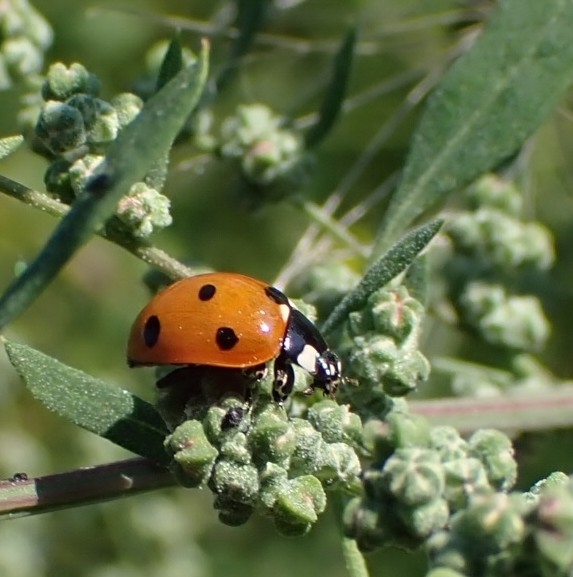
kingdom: Animalia
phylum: Arthropoda
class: Insecta
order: Coleoptera
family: Coccinellidae
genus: Coccinella
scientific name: Coccinella septempunctata
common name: Sevenspotted lady beetle
